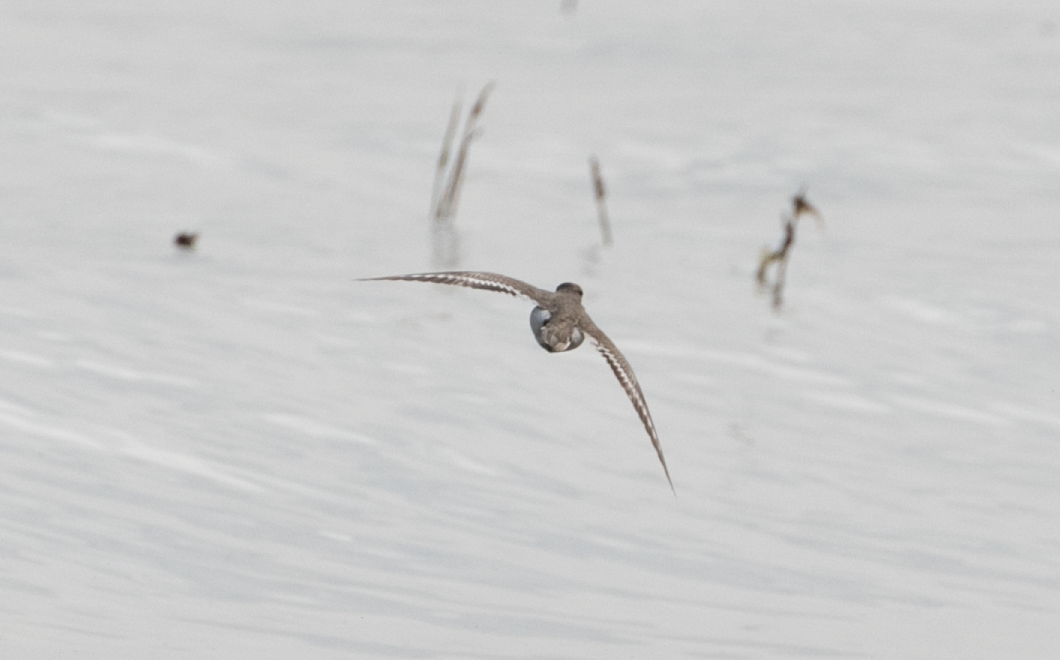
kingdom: Animalia
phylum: Chordata
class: Aves
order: Charadriiformes
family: Scolopacidae
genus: Actitis
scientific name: Actitis hypoleucos
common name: Common sandpiper
